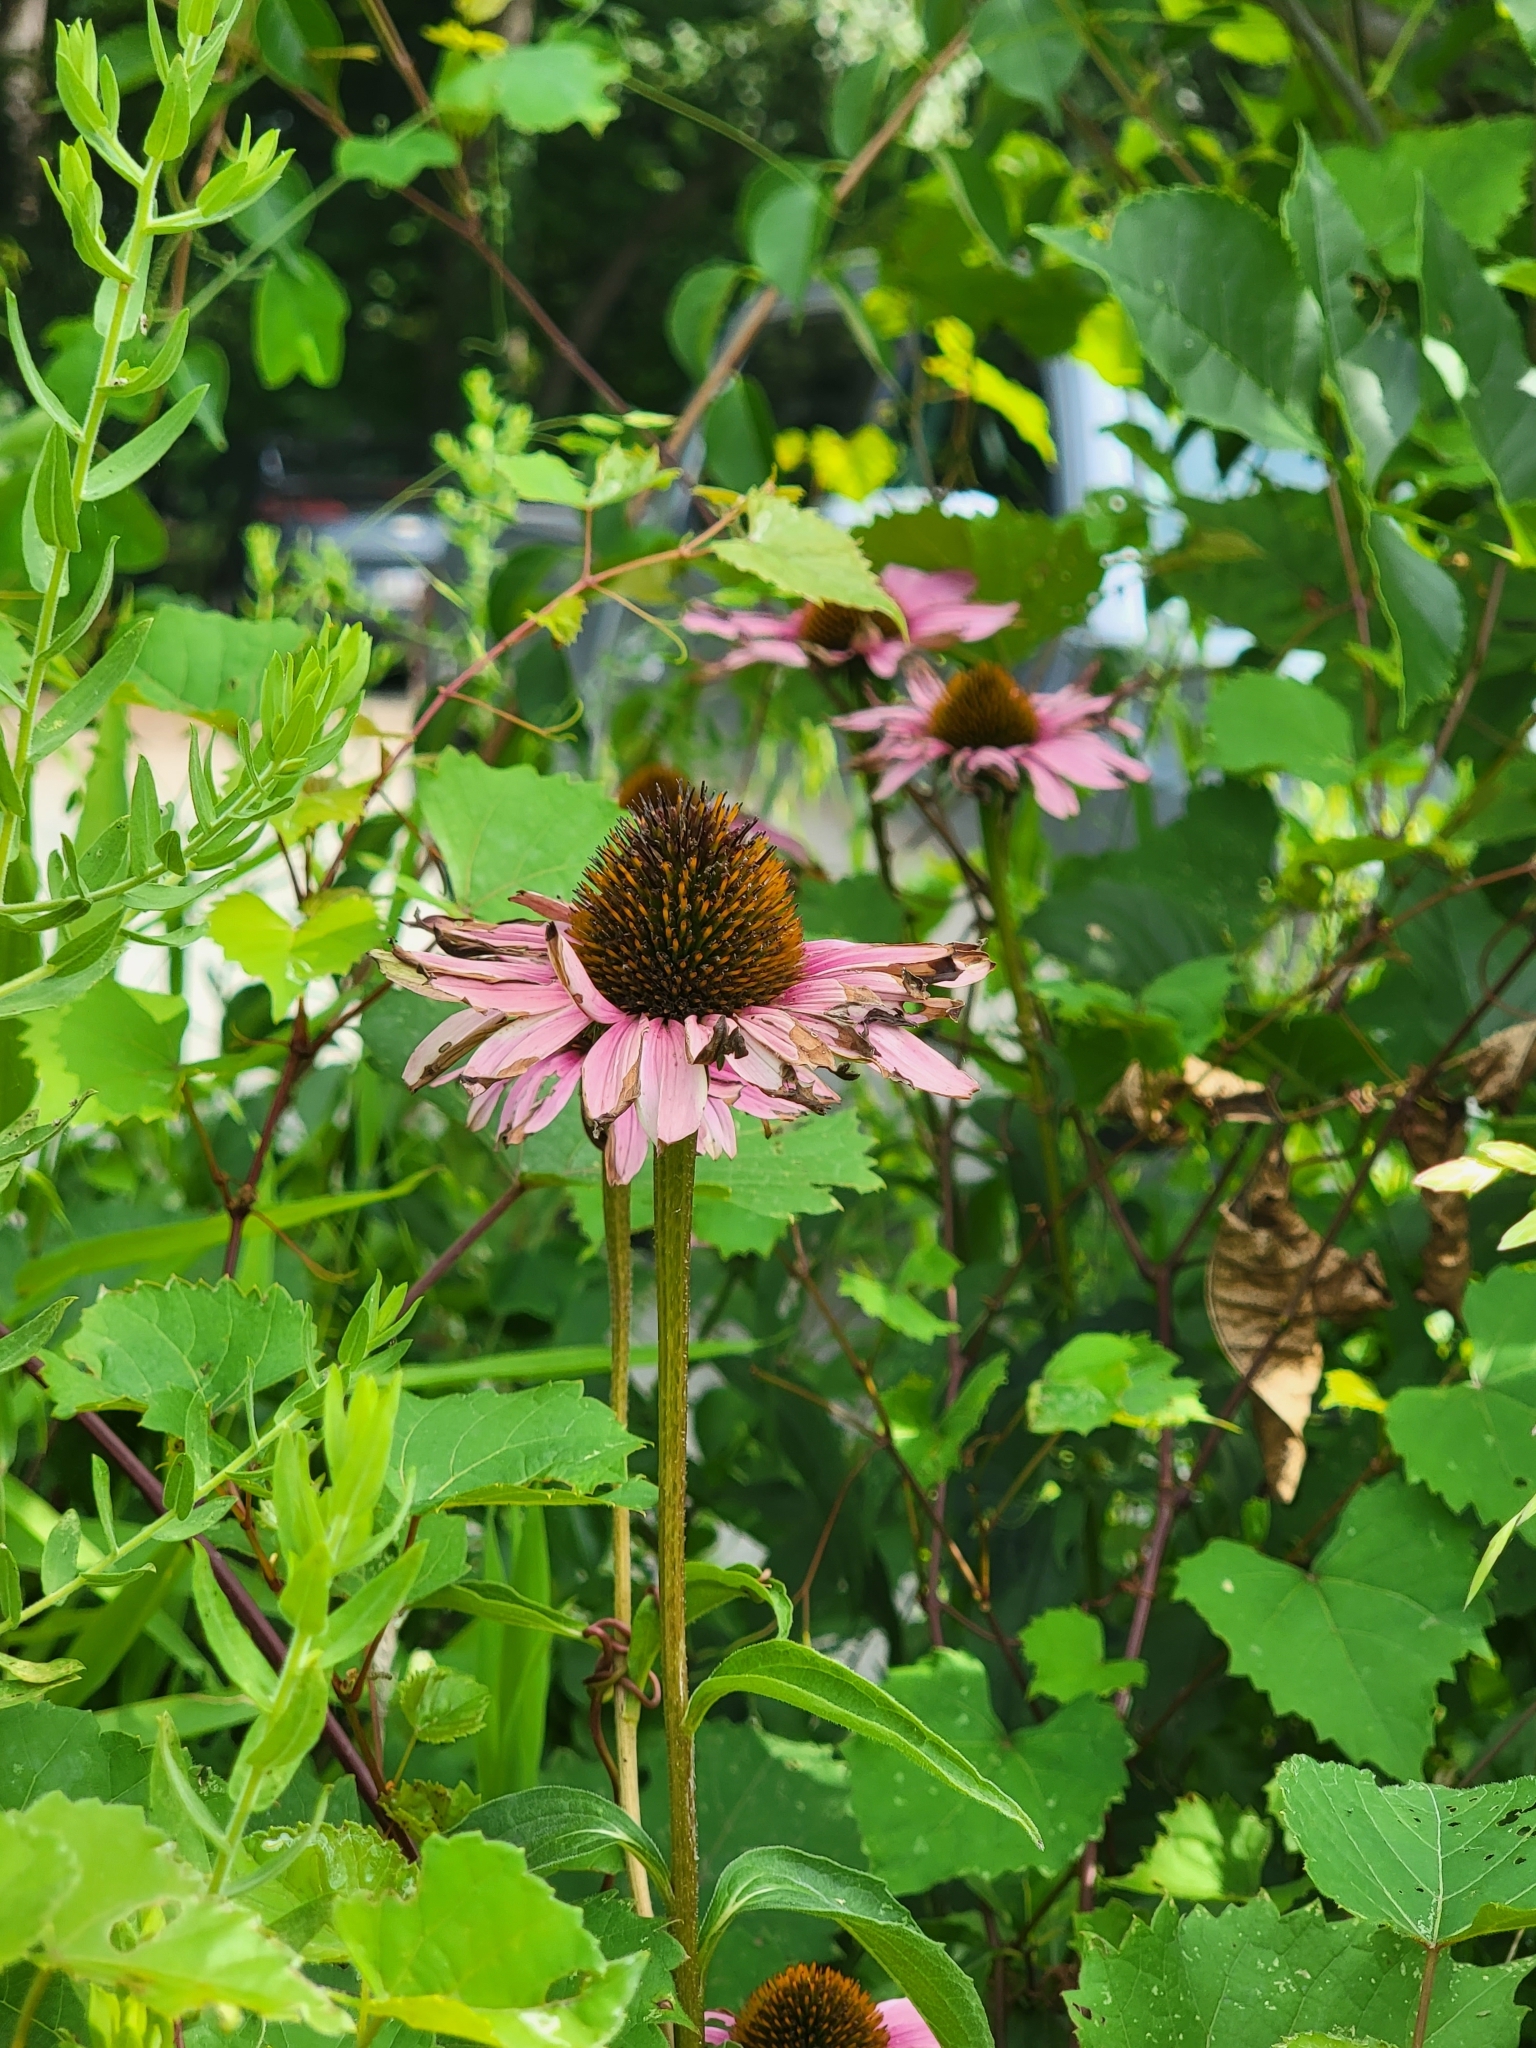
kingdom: Plantae
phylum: Tracheophyta
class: Magnoliopsida
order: Asterales
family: Asteraceae
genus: Echinacea
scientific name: Echinacea purpurea
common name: Broad-leaved purple coneflower
